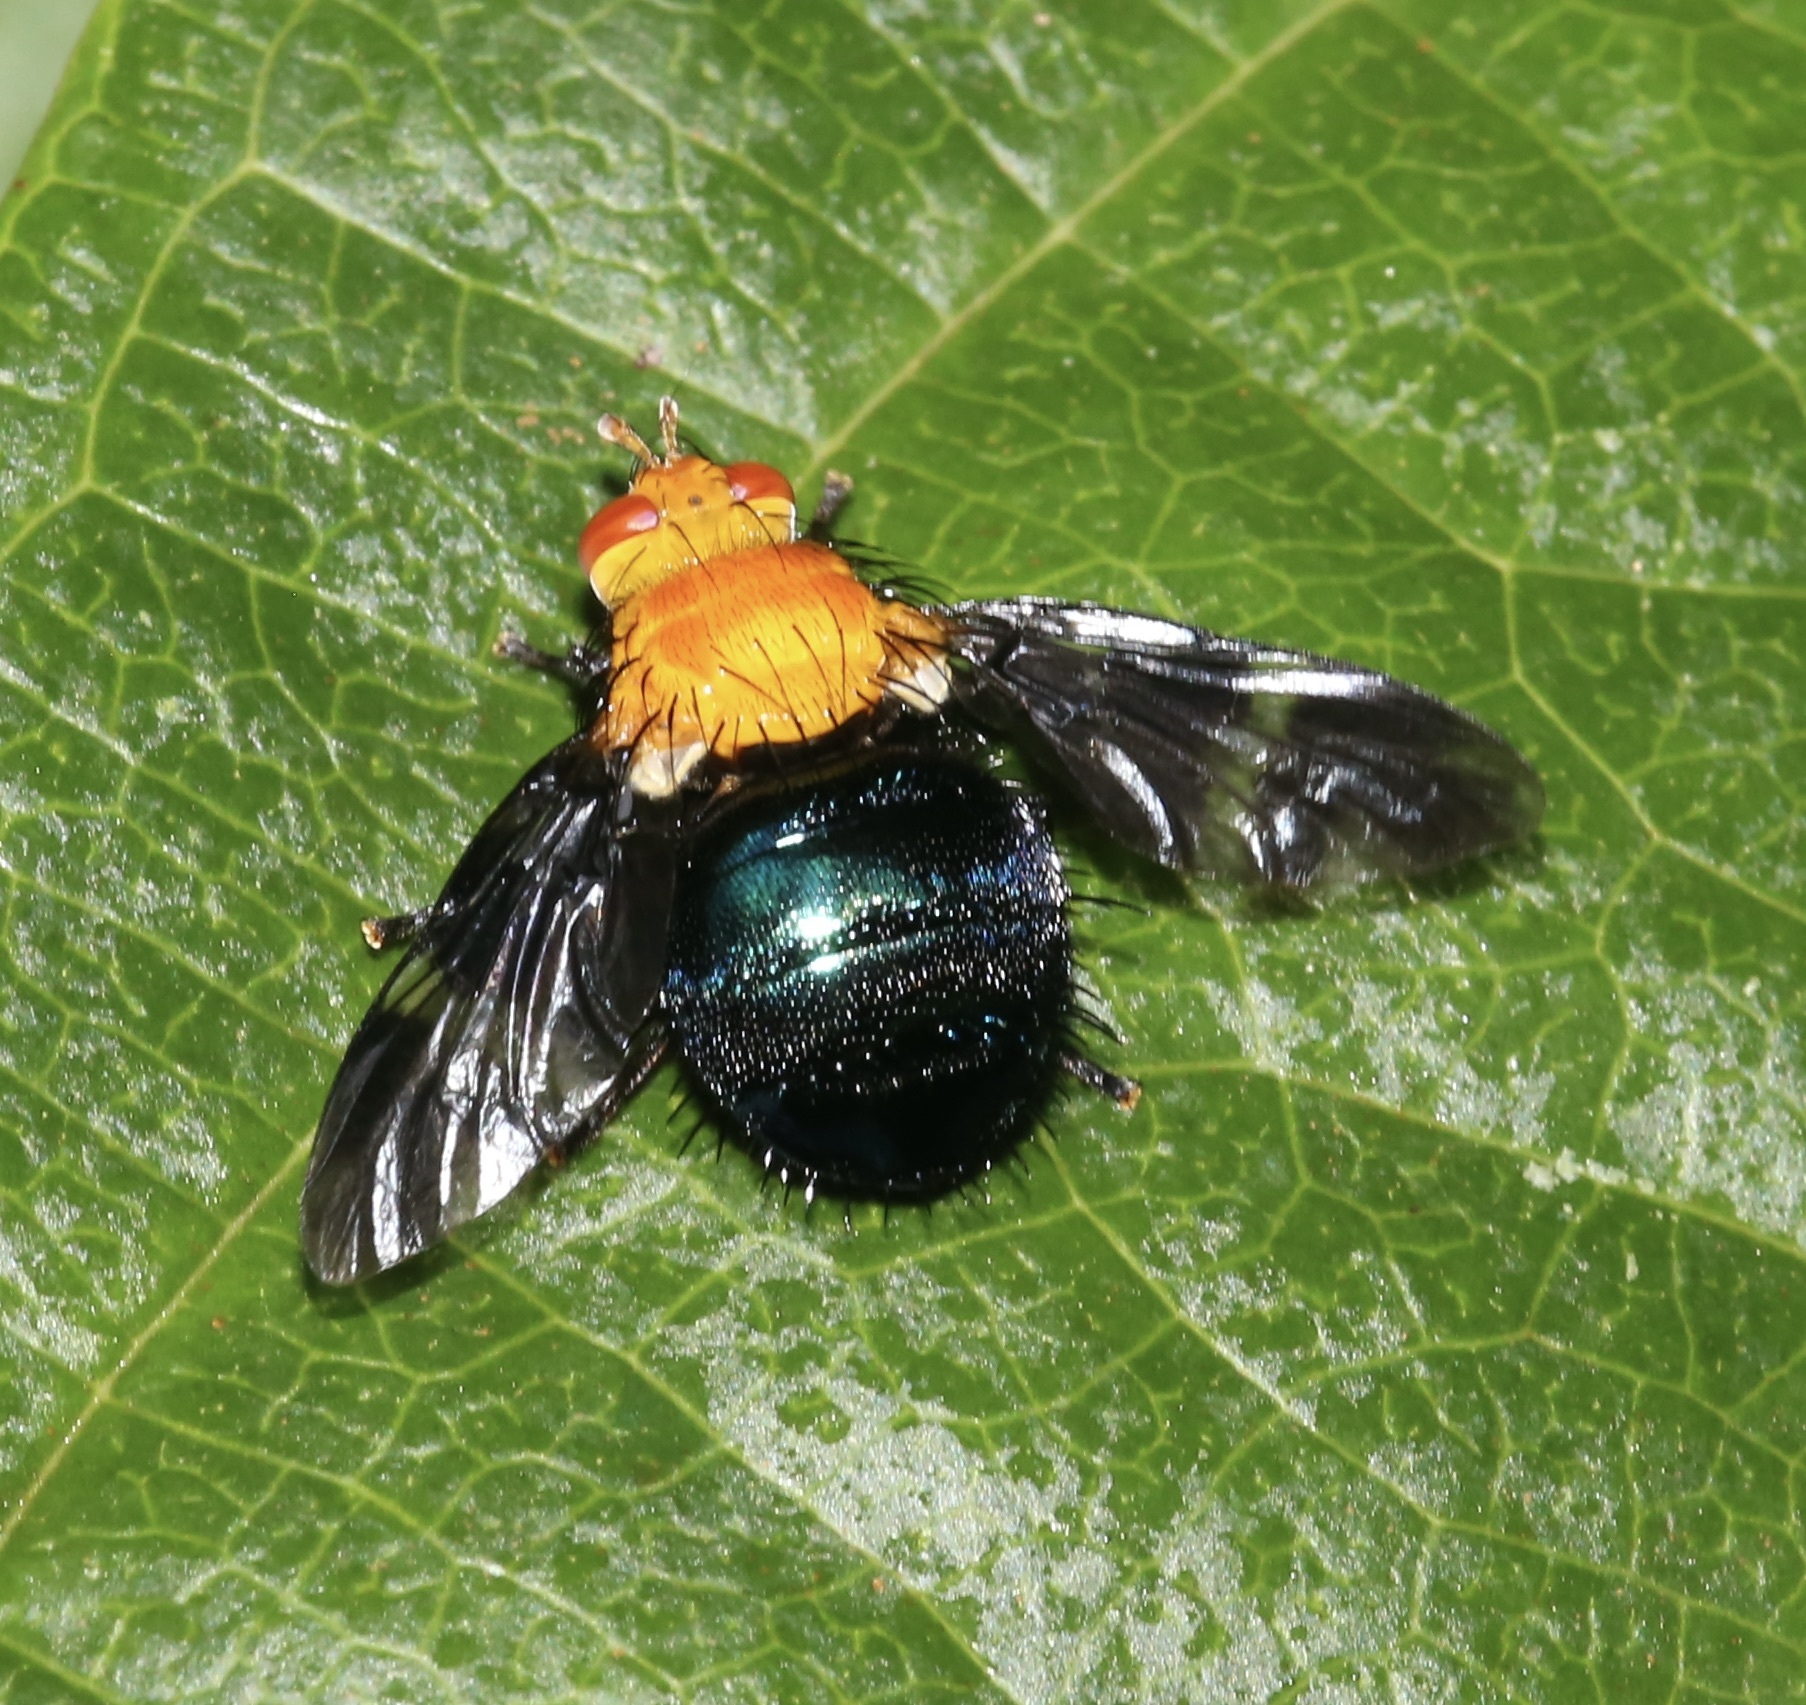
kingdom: Animalia
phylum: Arthropoda
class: Insecta
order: Diptera
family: Tachiniscidae
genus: Tachinisca
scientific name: Tachinisca cyaneiventris
